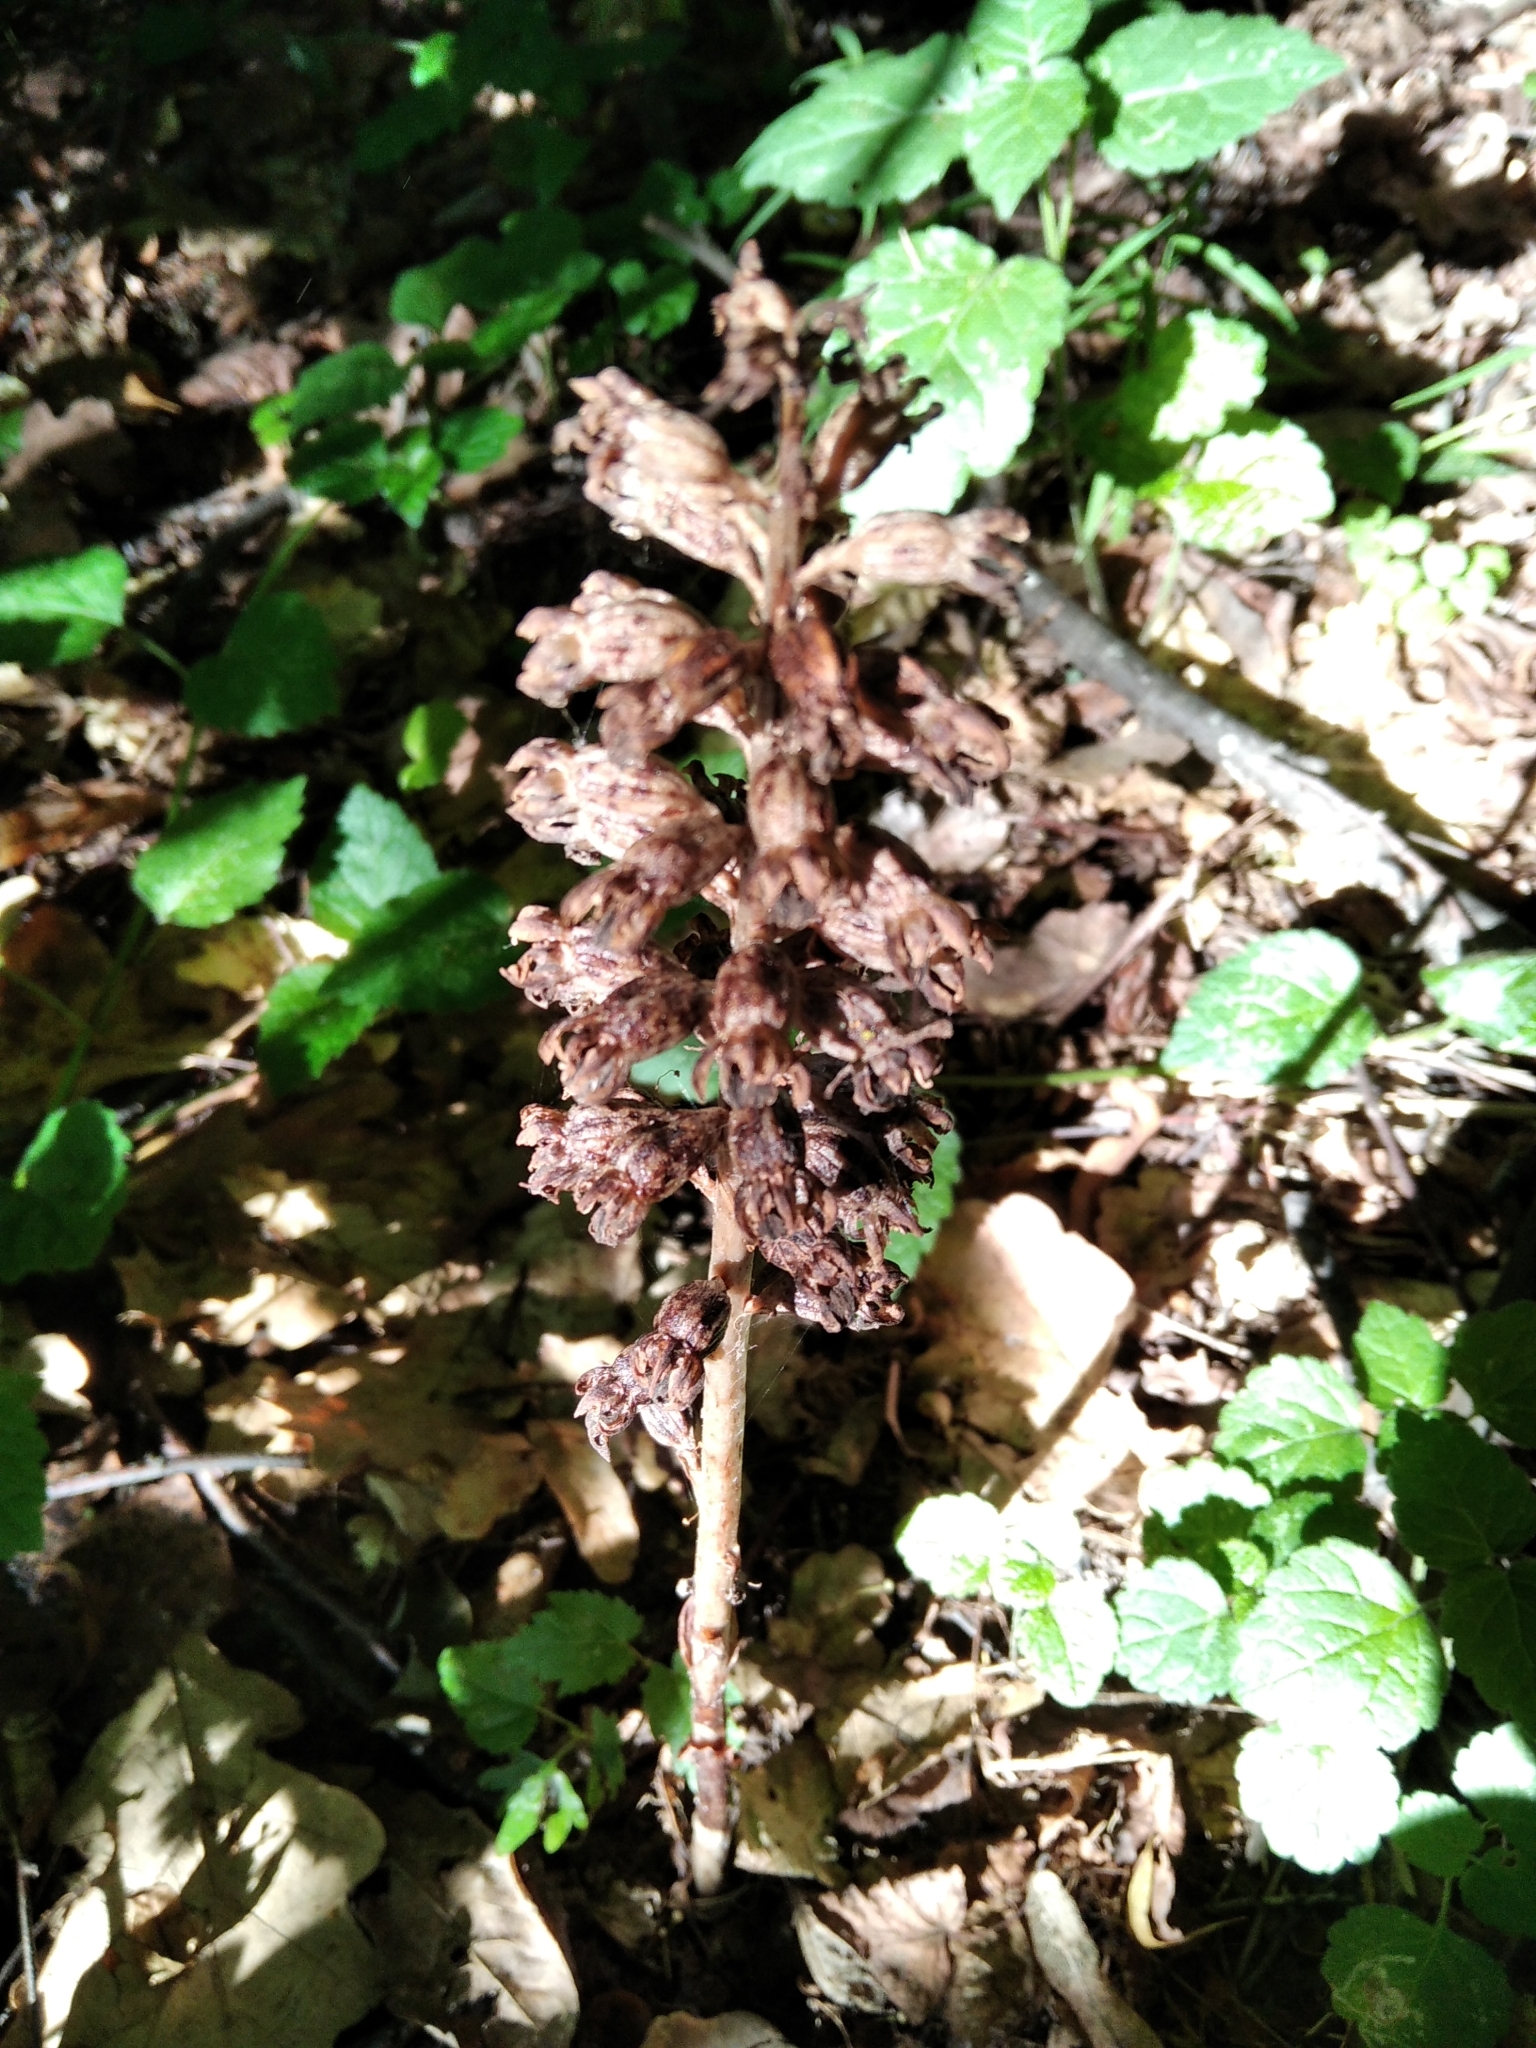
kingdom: Plantae
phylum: Tracheophyta
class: Liliopsida
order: Asparagales
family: Orchidaceae
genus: Neottia
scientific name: Neottia nidus-avis
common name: Bird's-nest orchid
